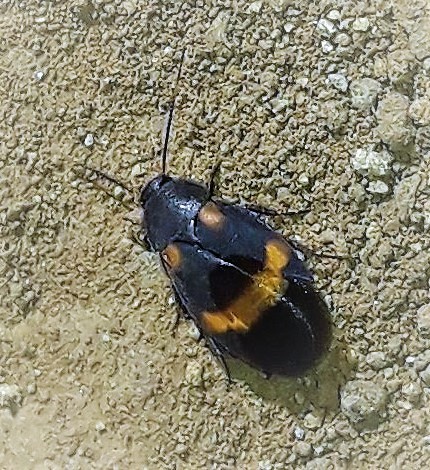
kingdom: Animalia
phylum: Arthropoda
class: Insecta
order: Blattodea
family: Corydiidae
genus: Holocompsa
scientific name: Holocompsa azteca
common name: Aztec hairy cockroach
